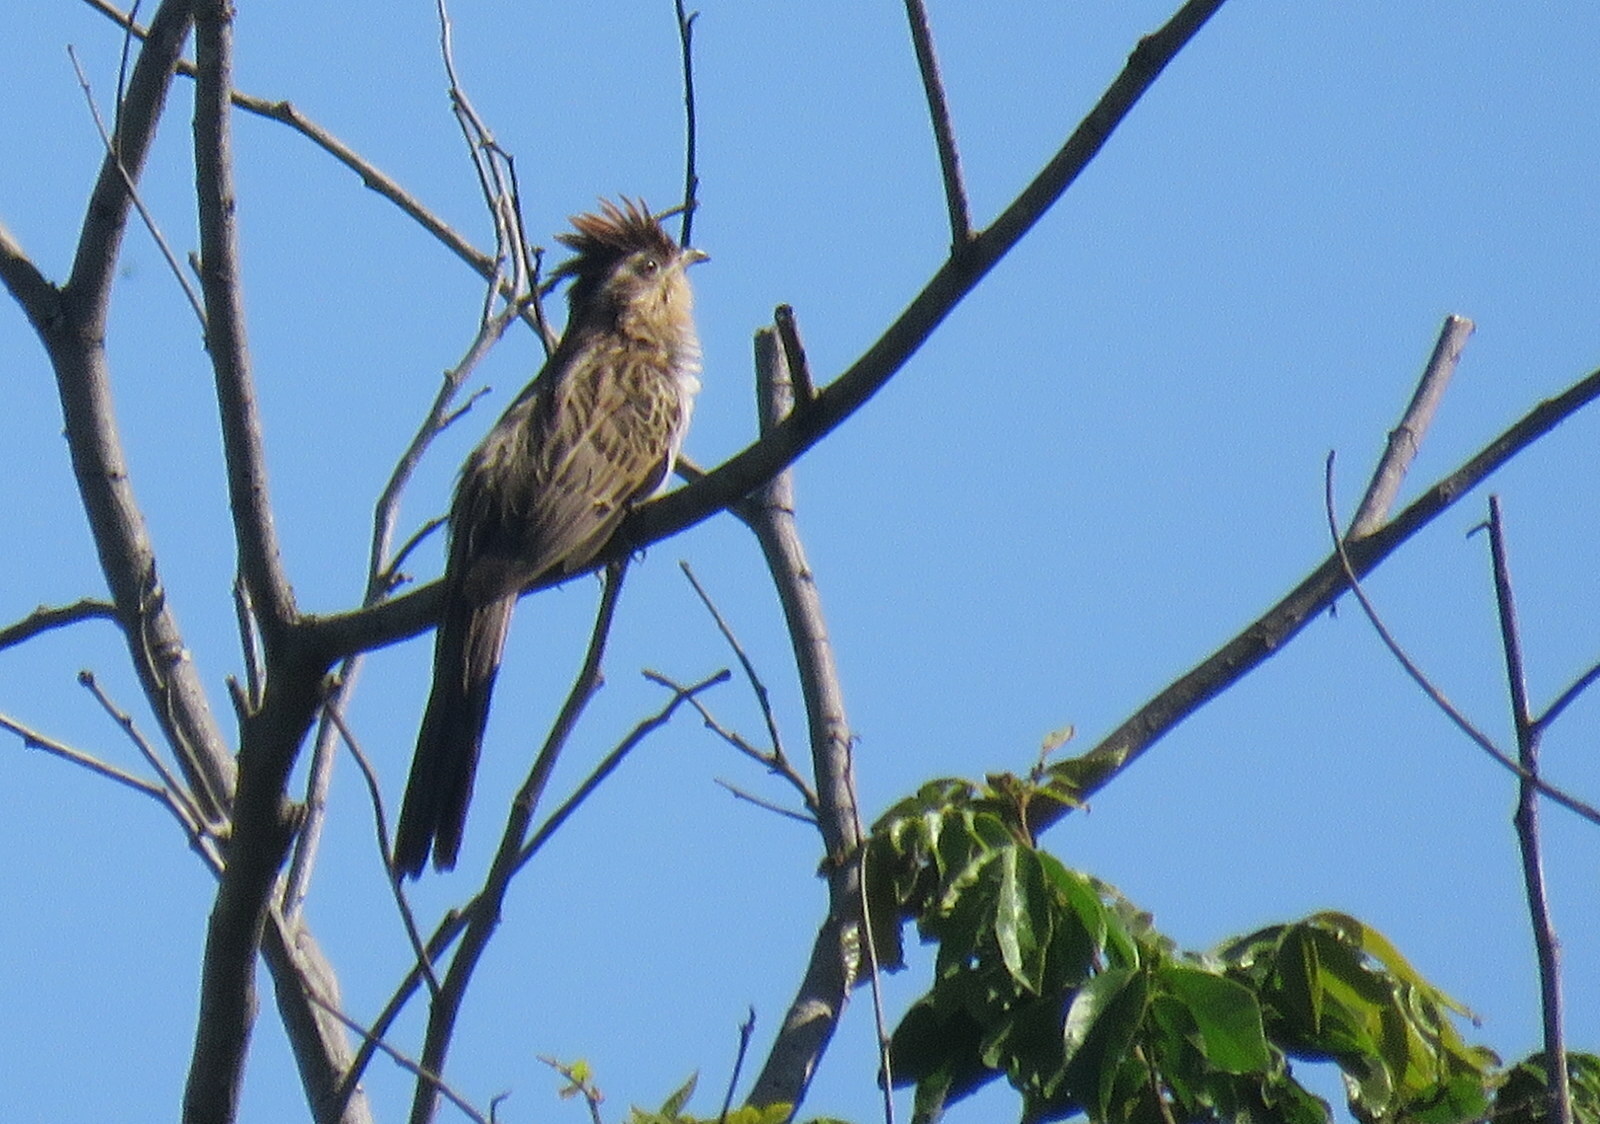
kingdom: Animalia
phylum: Chordata
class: Aves
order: Cuculiformes
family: Cuculidae
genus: Tapera
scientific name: Tapera naevia
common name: Striped cuckoo
